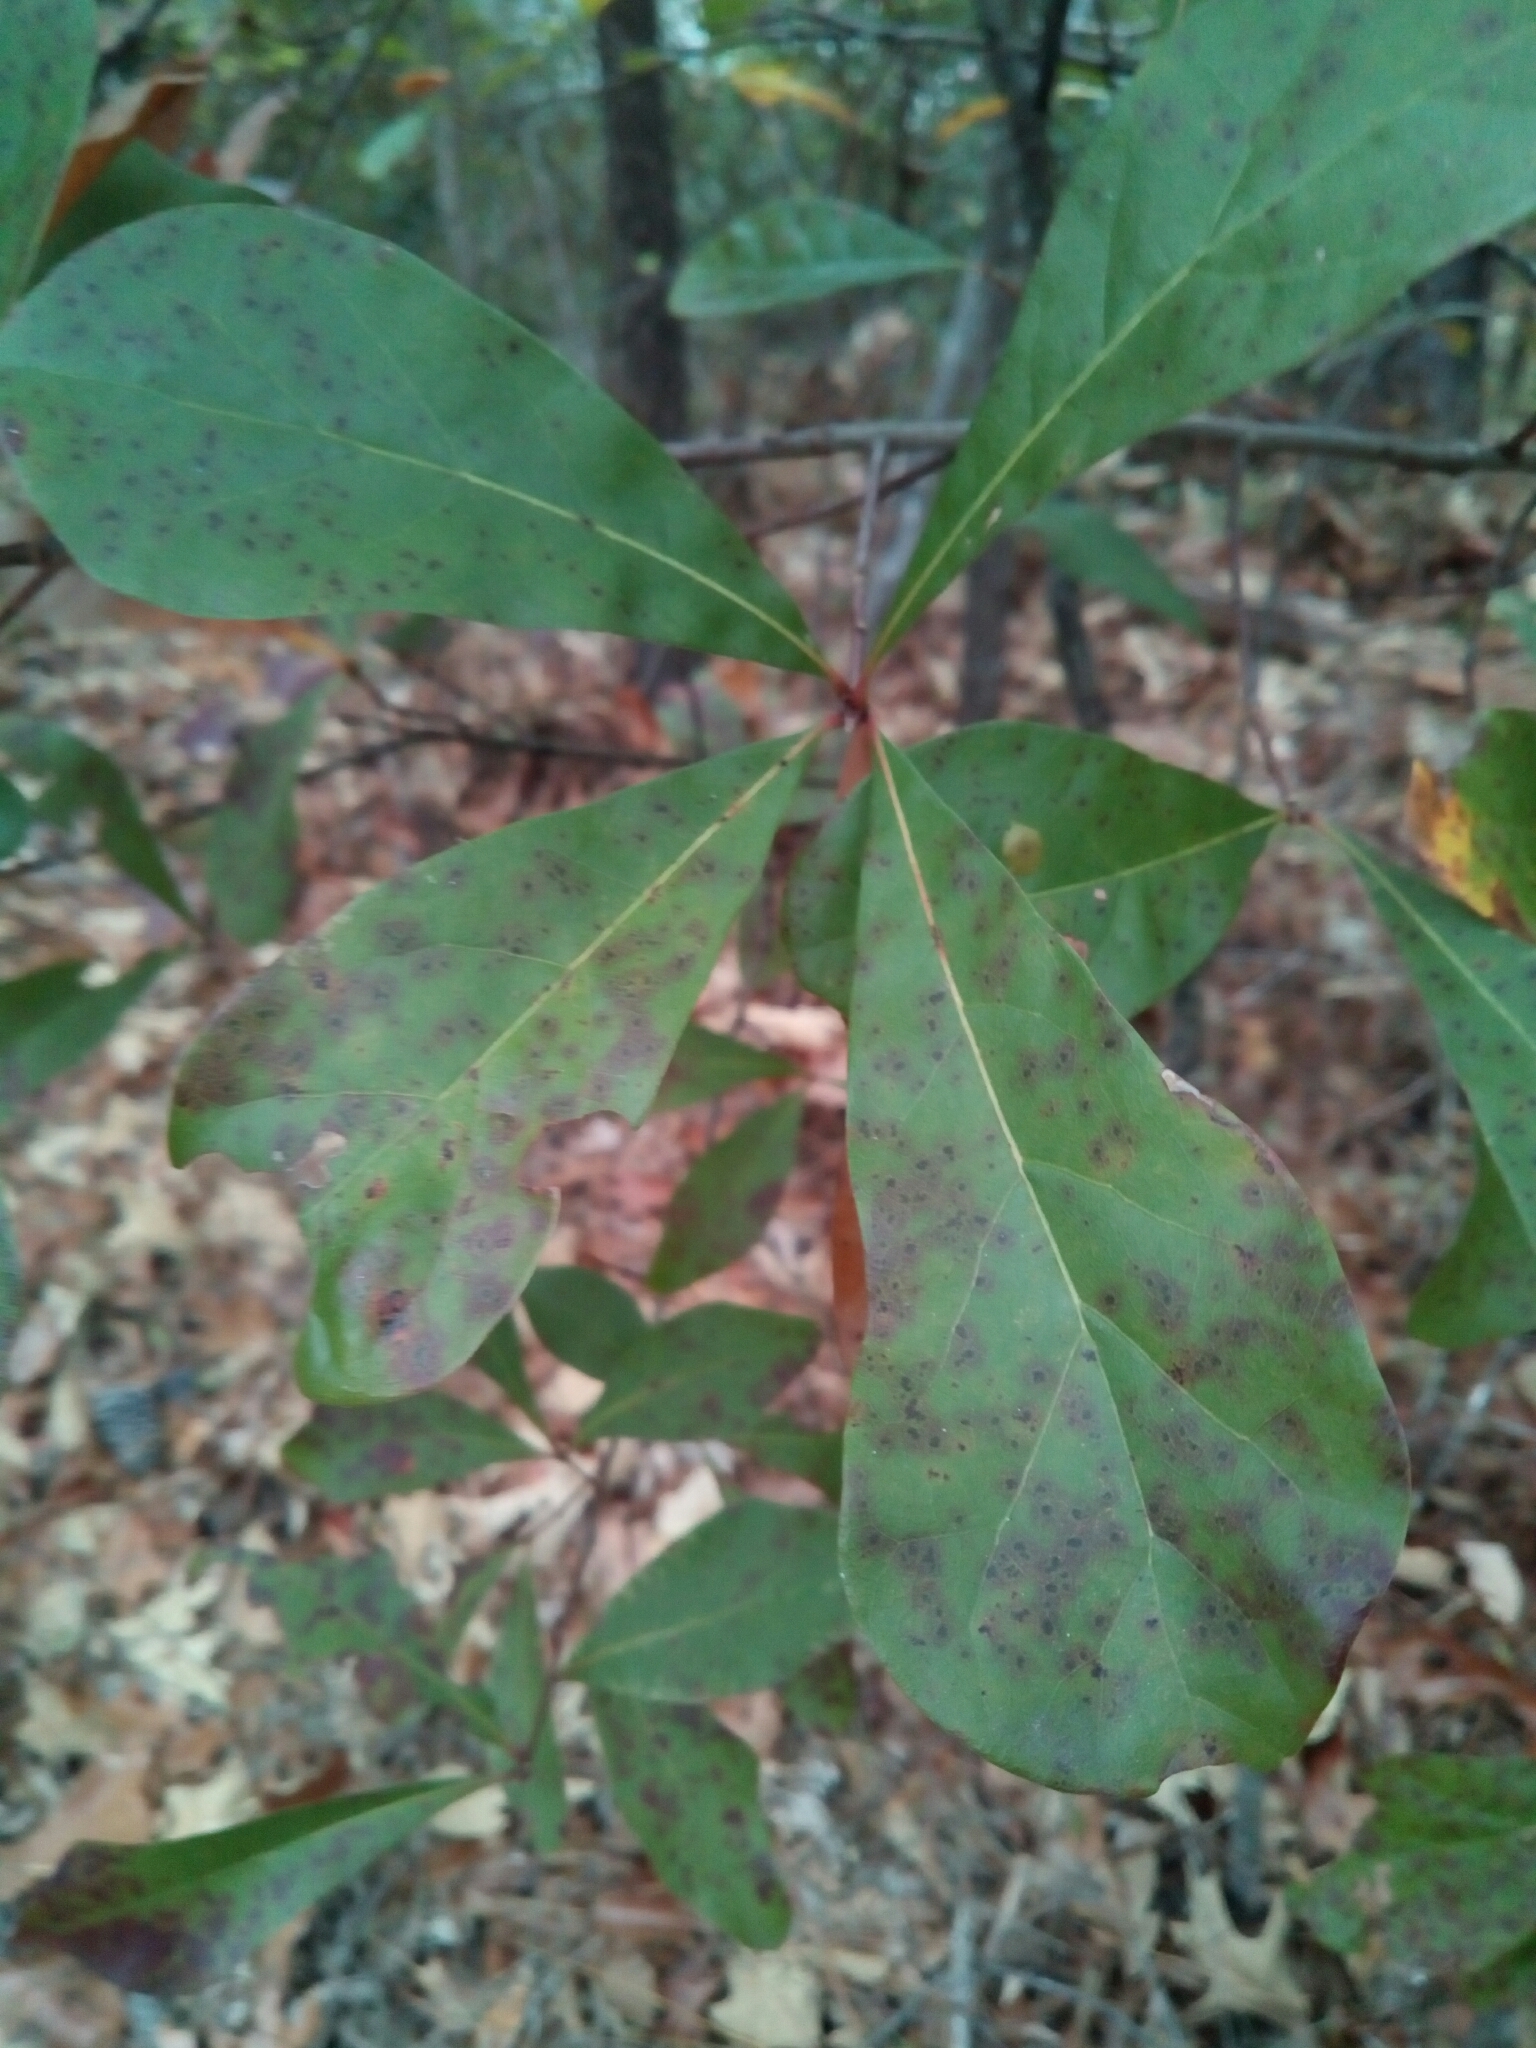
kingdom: Plantae
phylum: Tracheophyta
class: Magnoliopsida
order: Fagales
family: Fagaceae
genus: Quercus
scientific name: Quercus nigra
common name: Water oak
